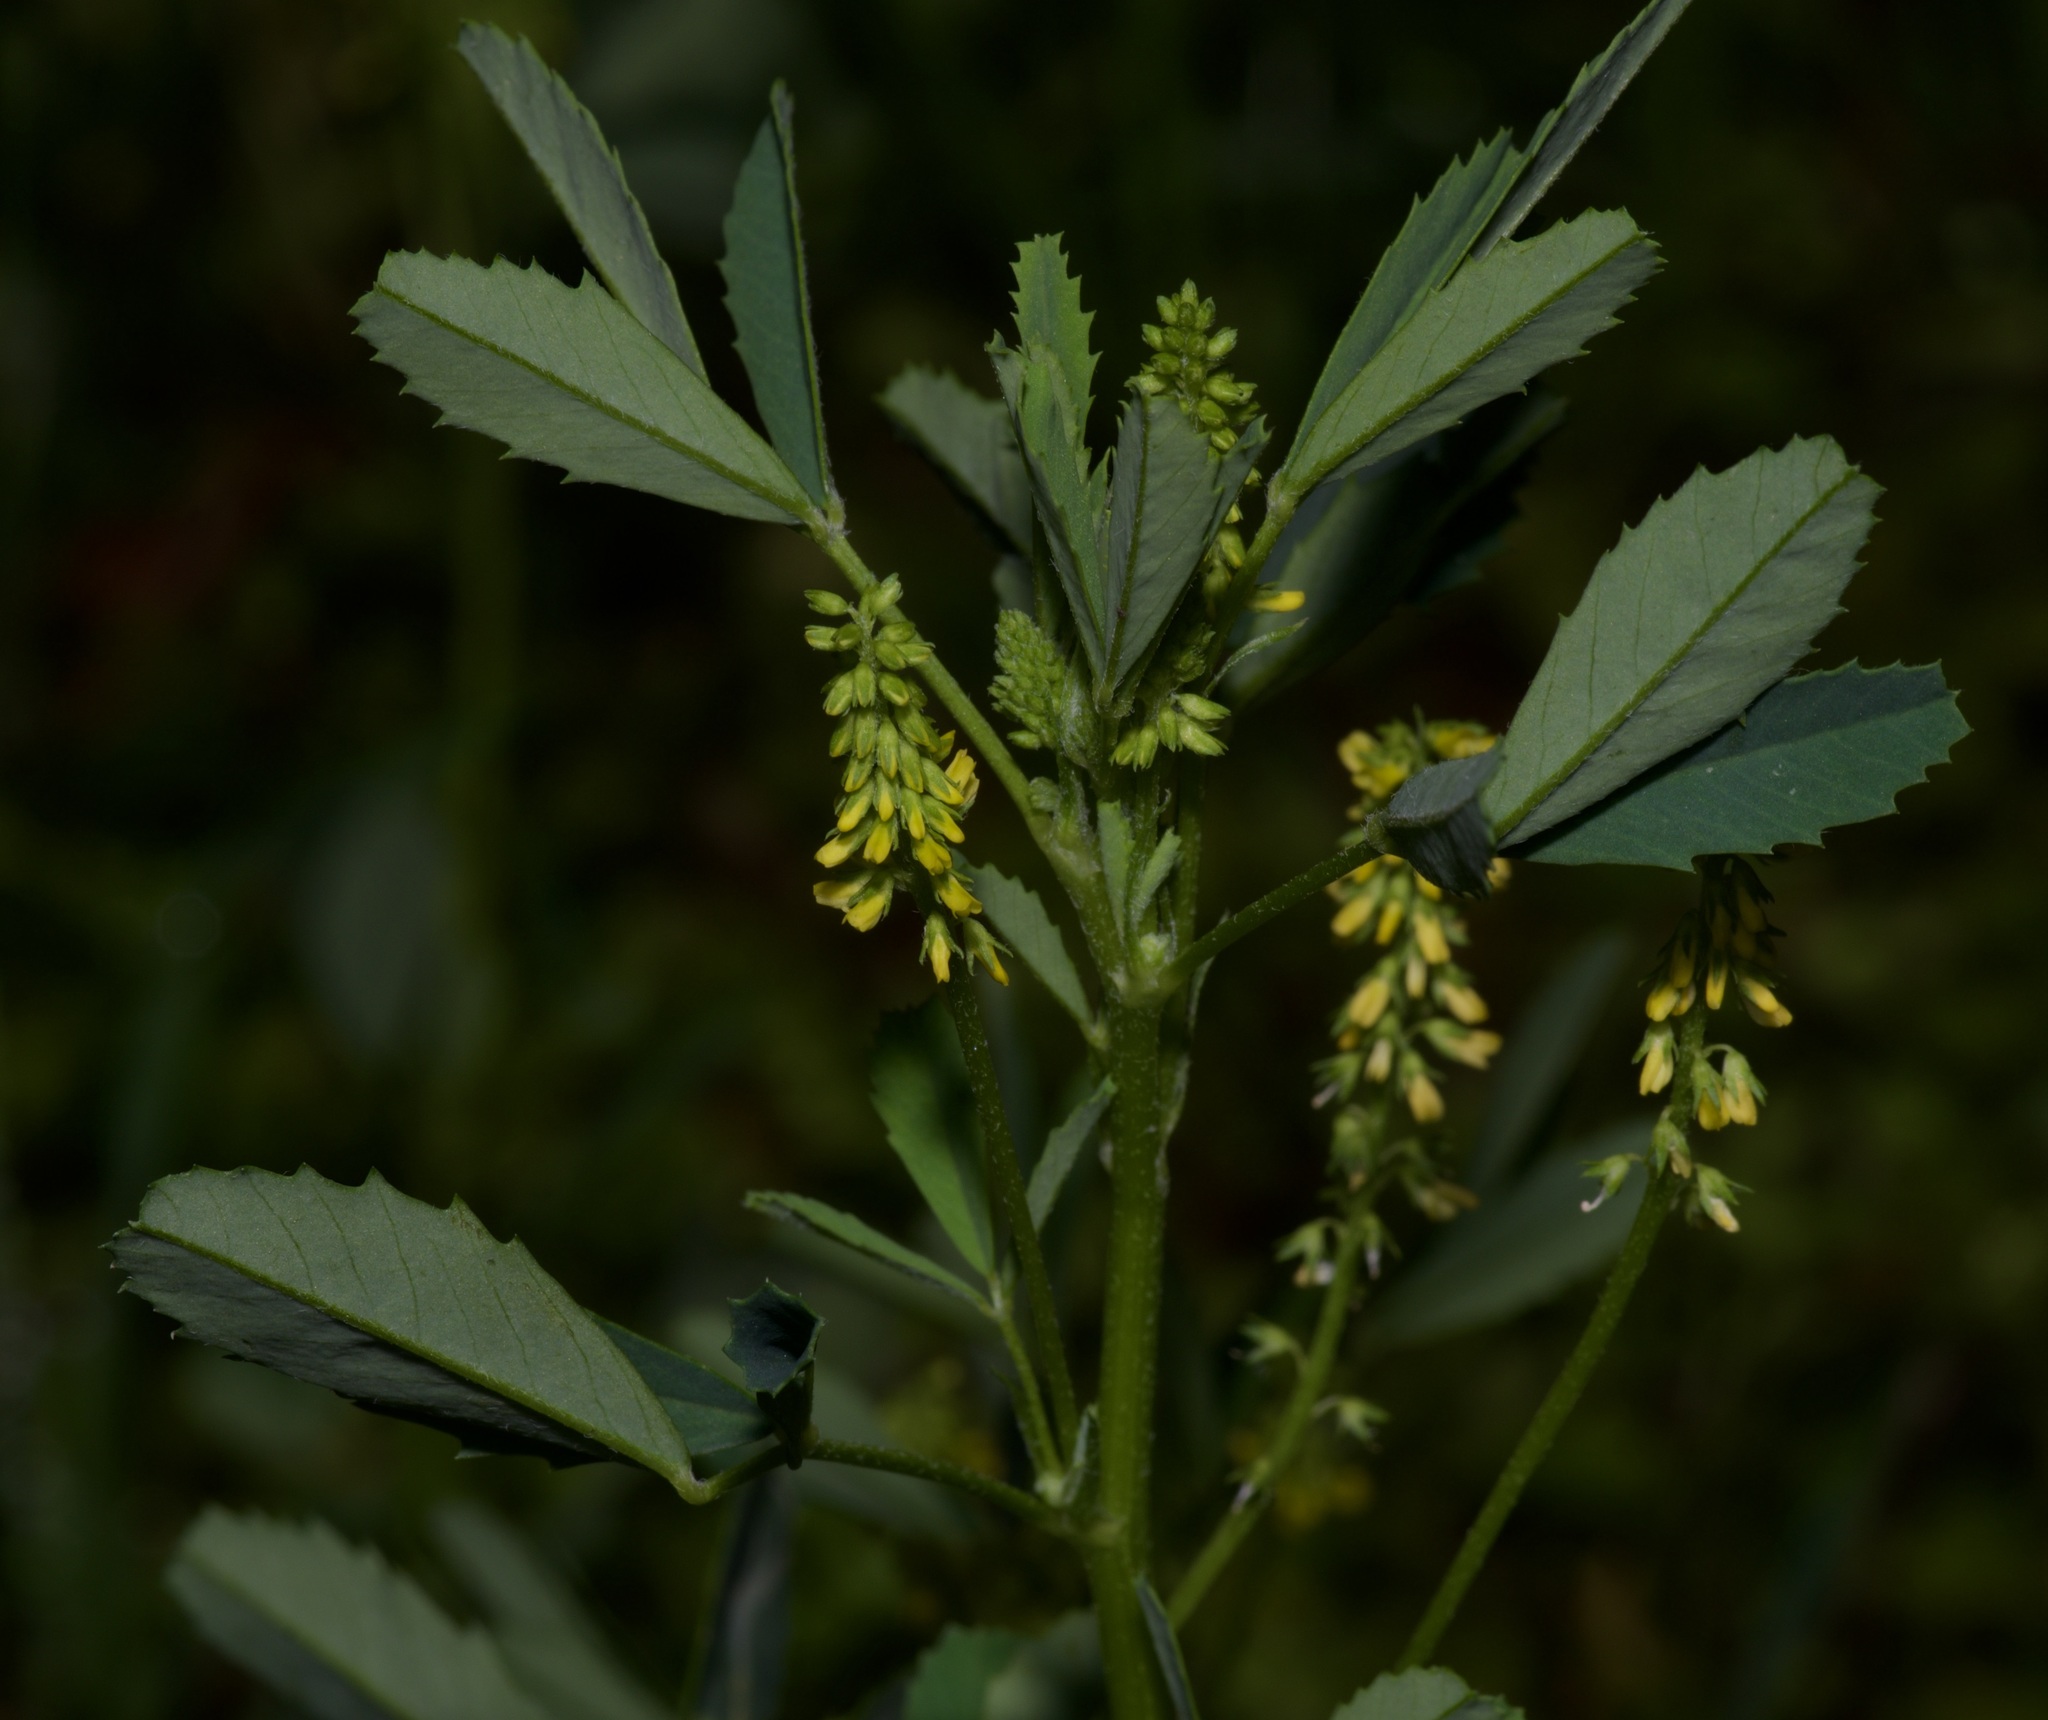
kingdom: Plantae
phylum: Tracheophyta
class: Magnoliopsida
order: Fabales
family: Fabaceae
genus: Melilotus
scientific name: Melilotus indicus
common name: Small melilot
